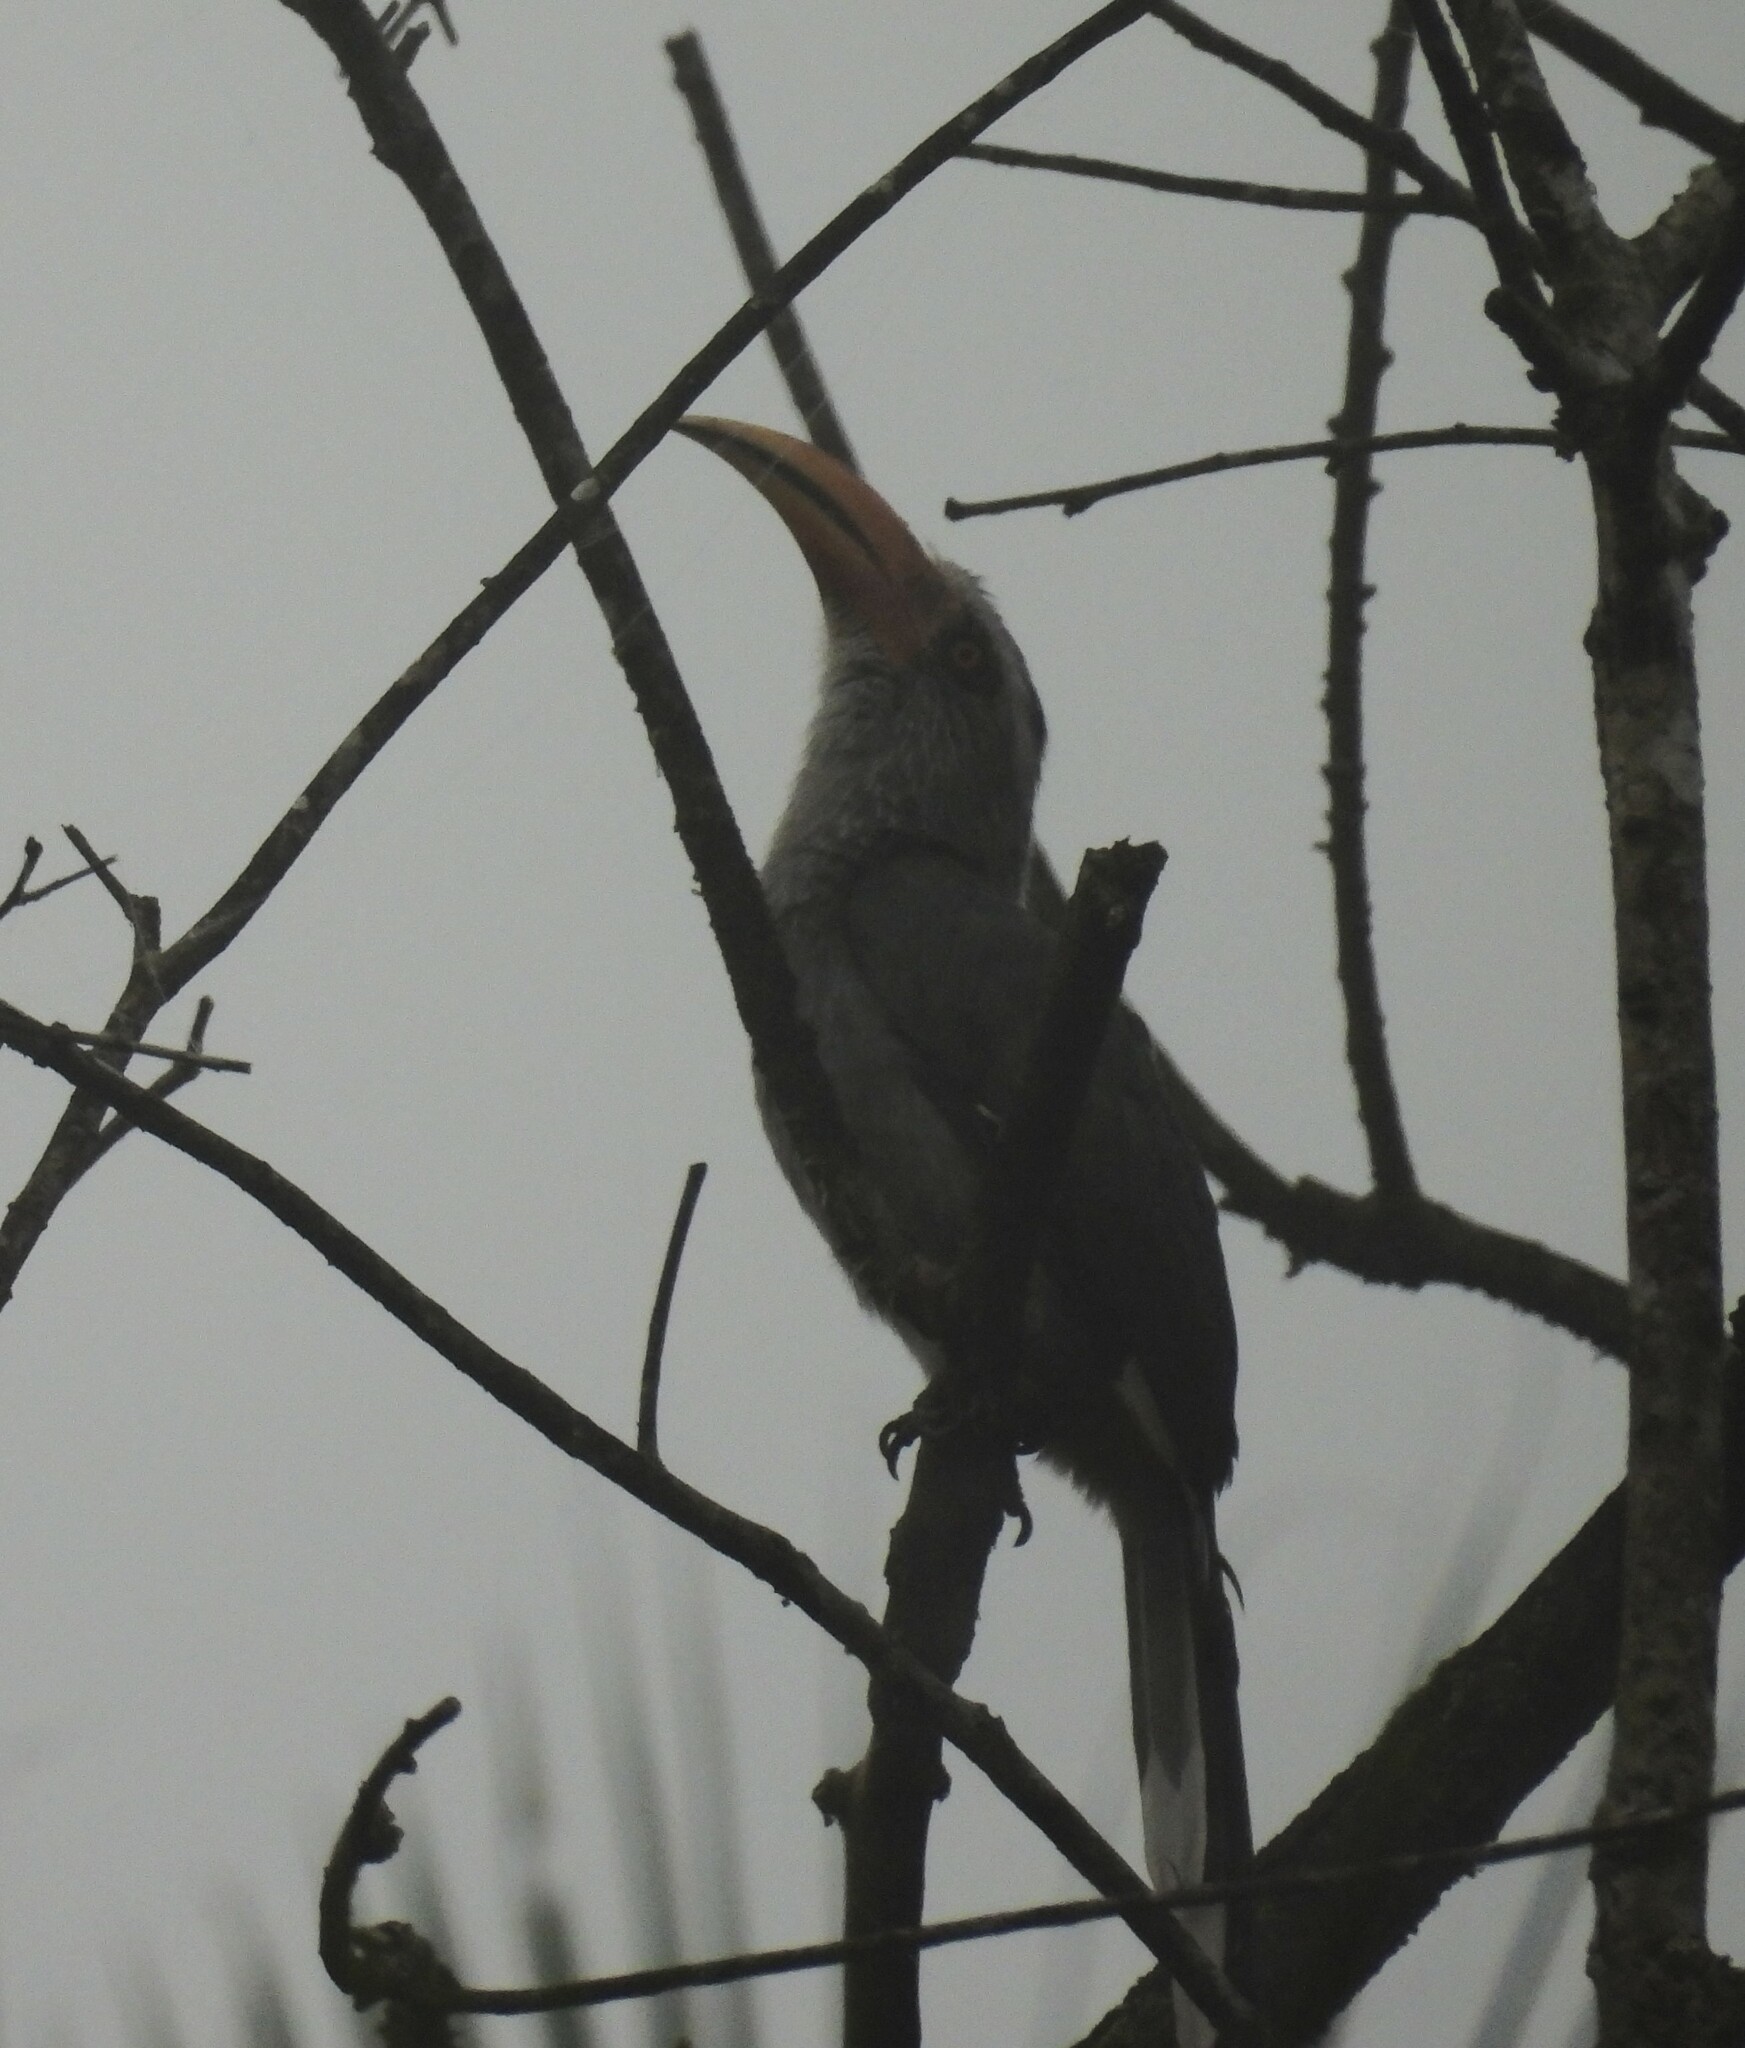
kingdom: Animalia
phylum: Chordata
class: Aves
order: Bucerotiformes
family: Bucerotidae
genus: Ocyceros
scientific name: Ocyceros griseus
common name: Malabar grey hornbill
